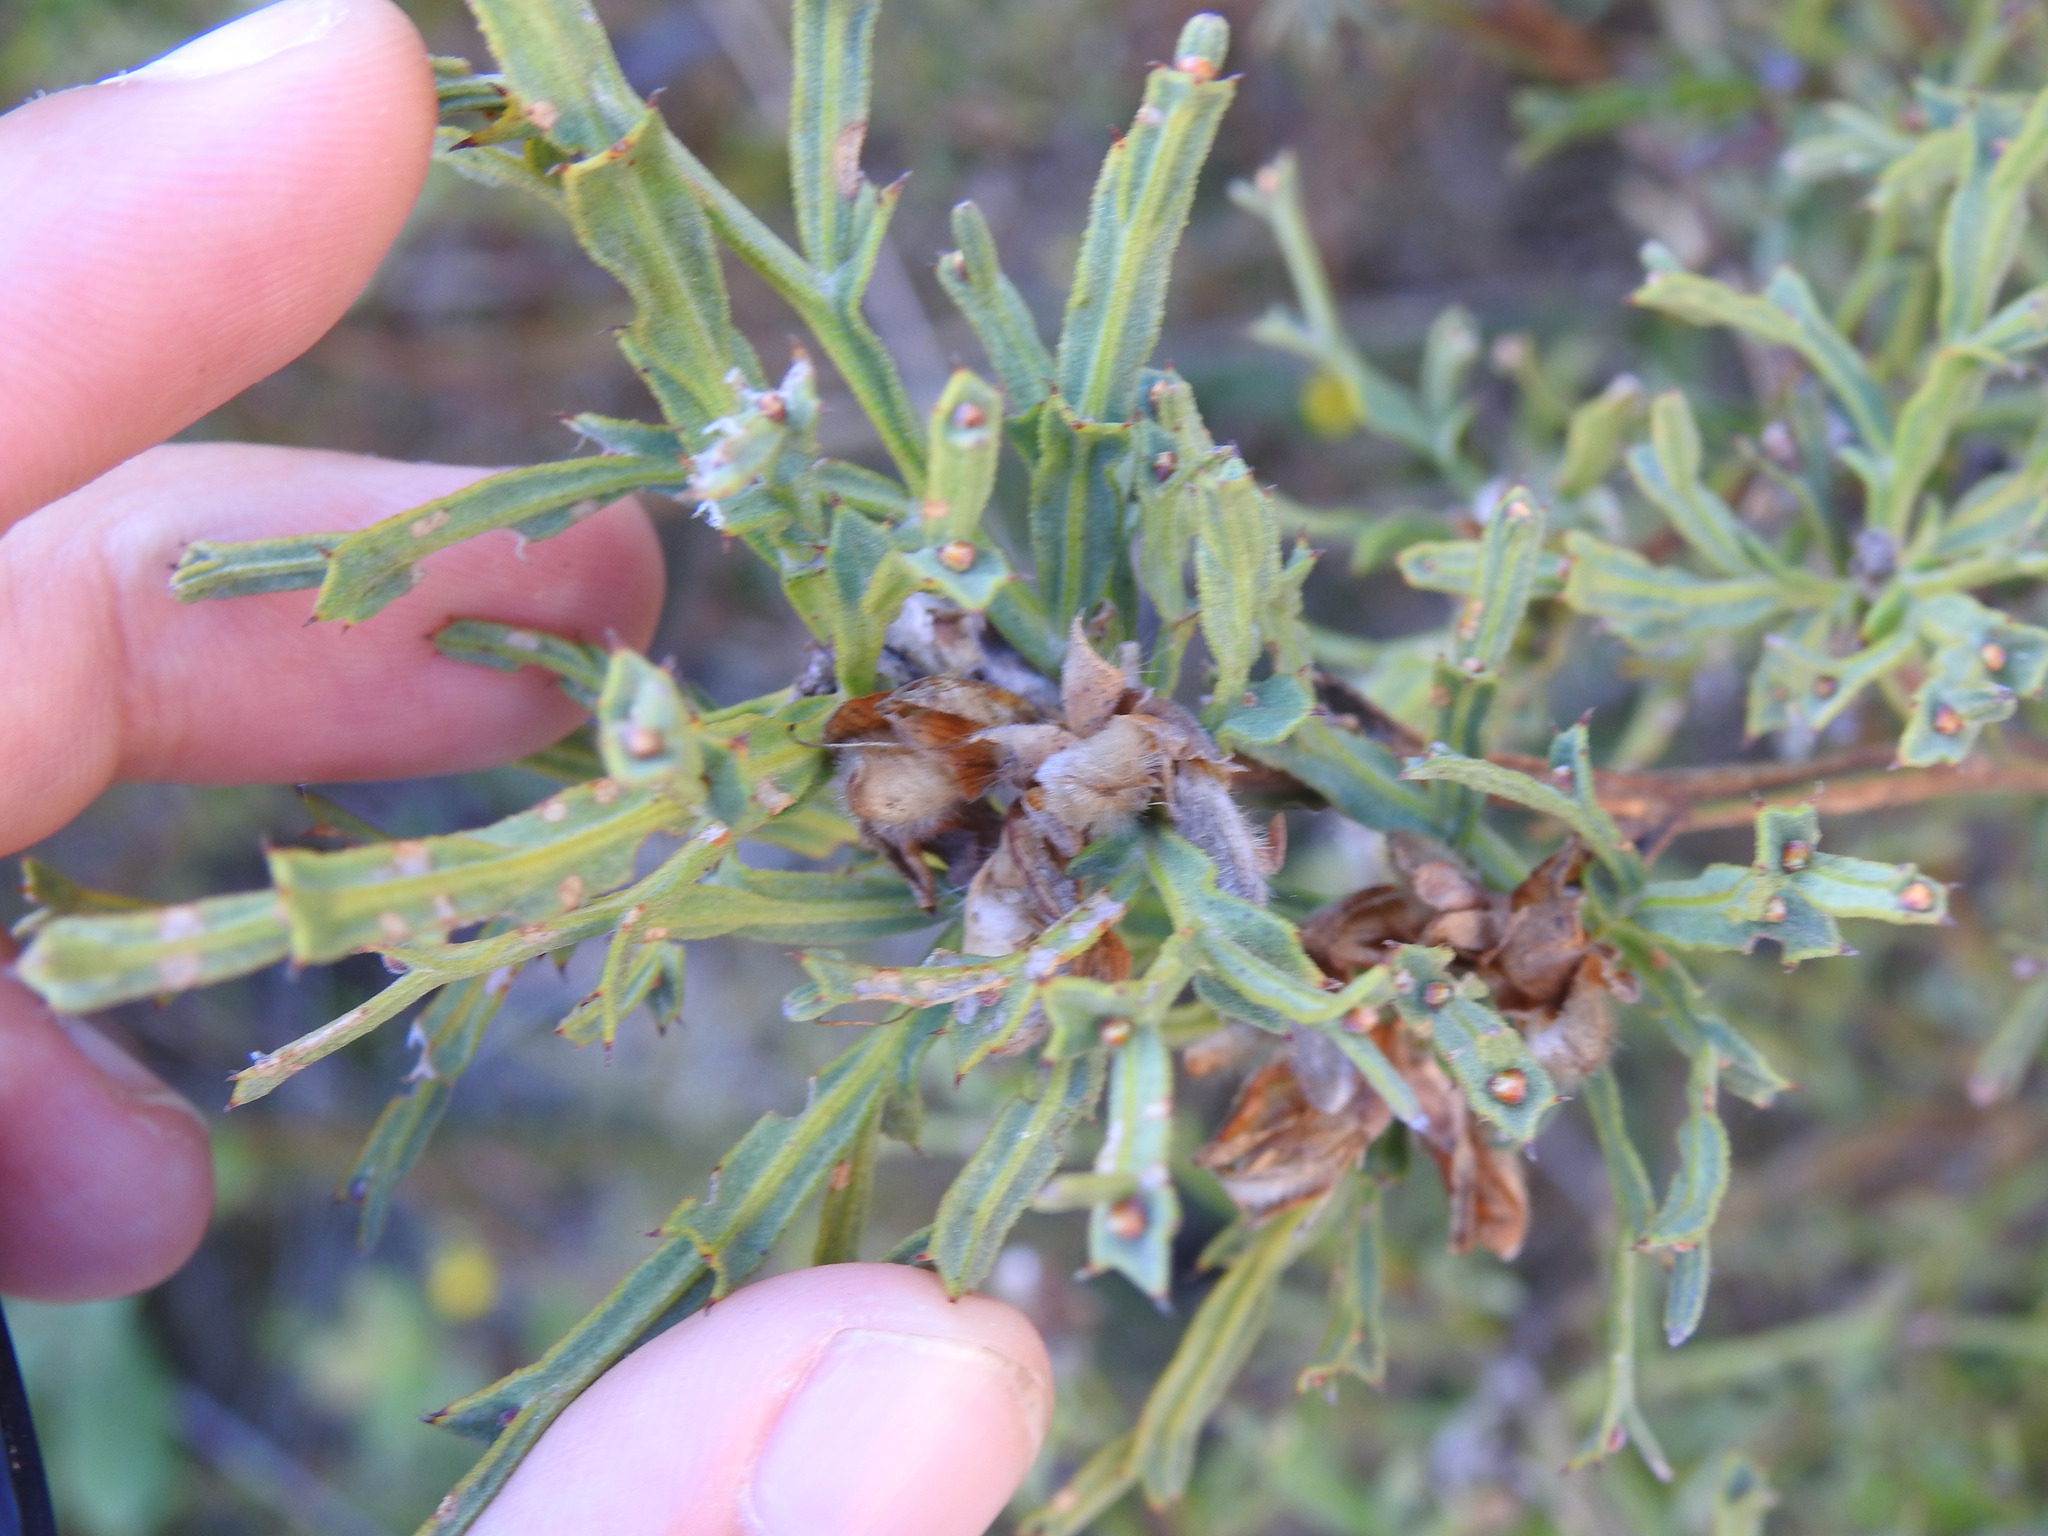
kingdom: Plantae
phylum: Tracheophyta
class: Magnoliopsida
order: Fabales
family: Fabaceae
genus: Genista
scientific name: Genista tridentata
